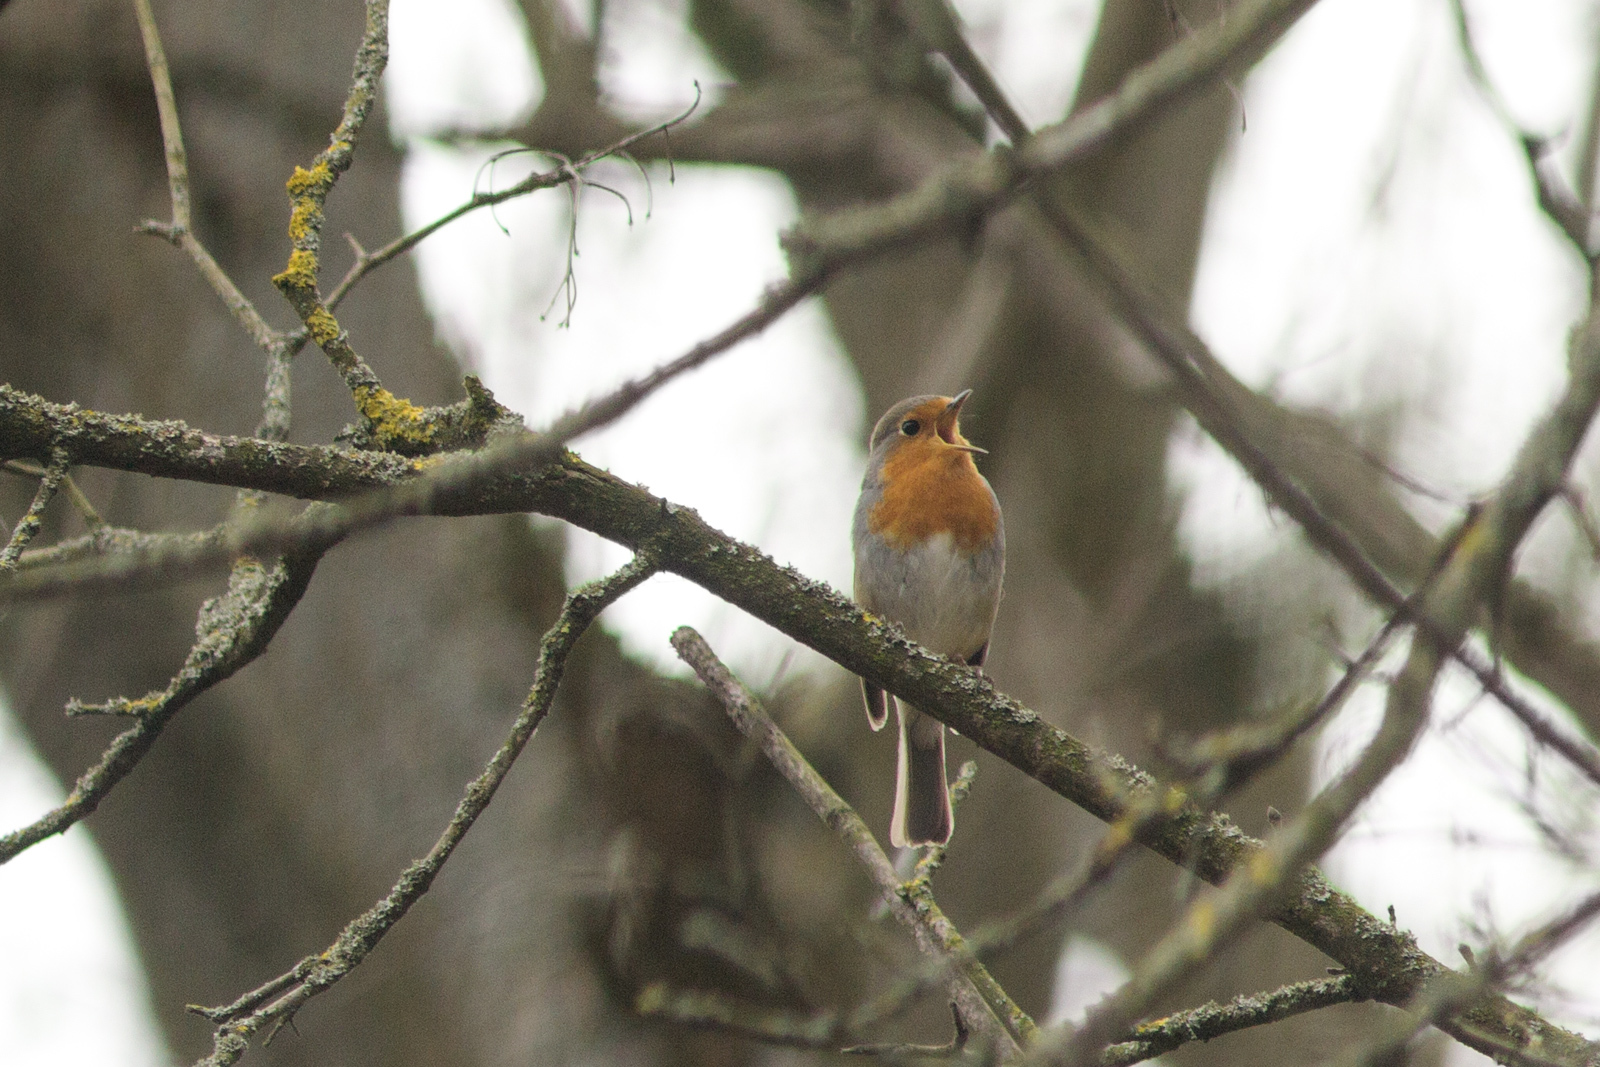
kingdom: Animalia
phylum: Chordata
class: Aves
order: Passeriformes
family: Muscicapidae
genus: Erithacus
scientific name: Erithacus rubecula
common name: European robin
